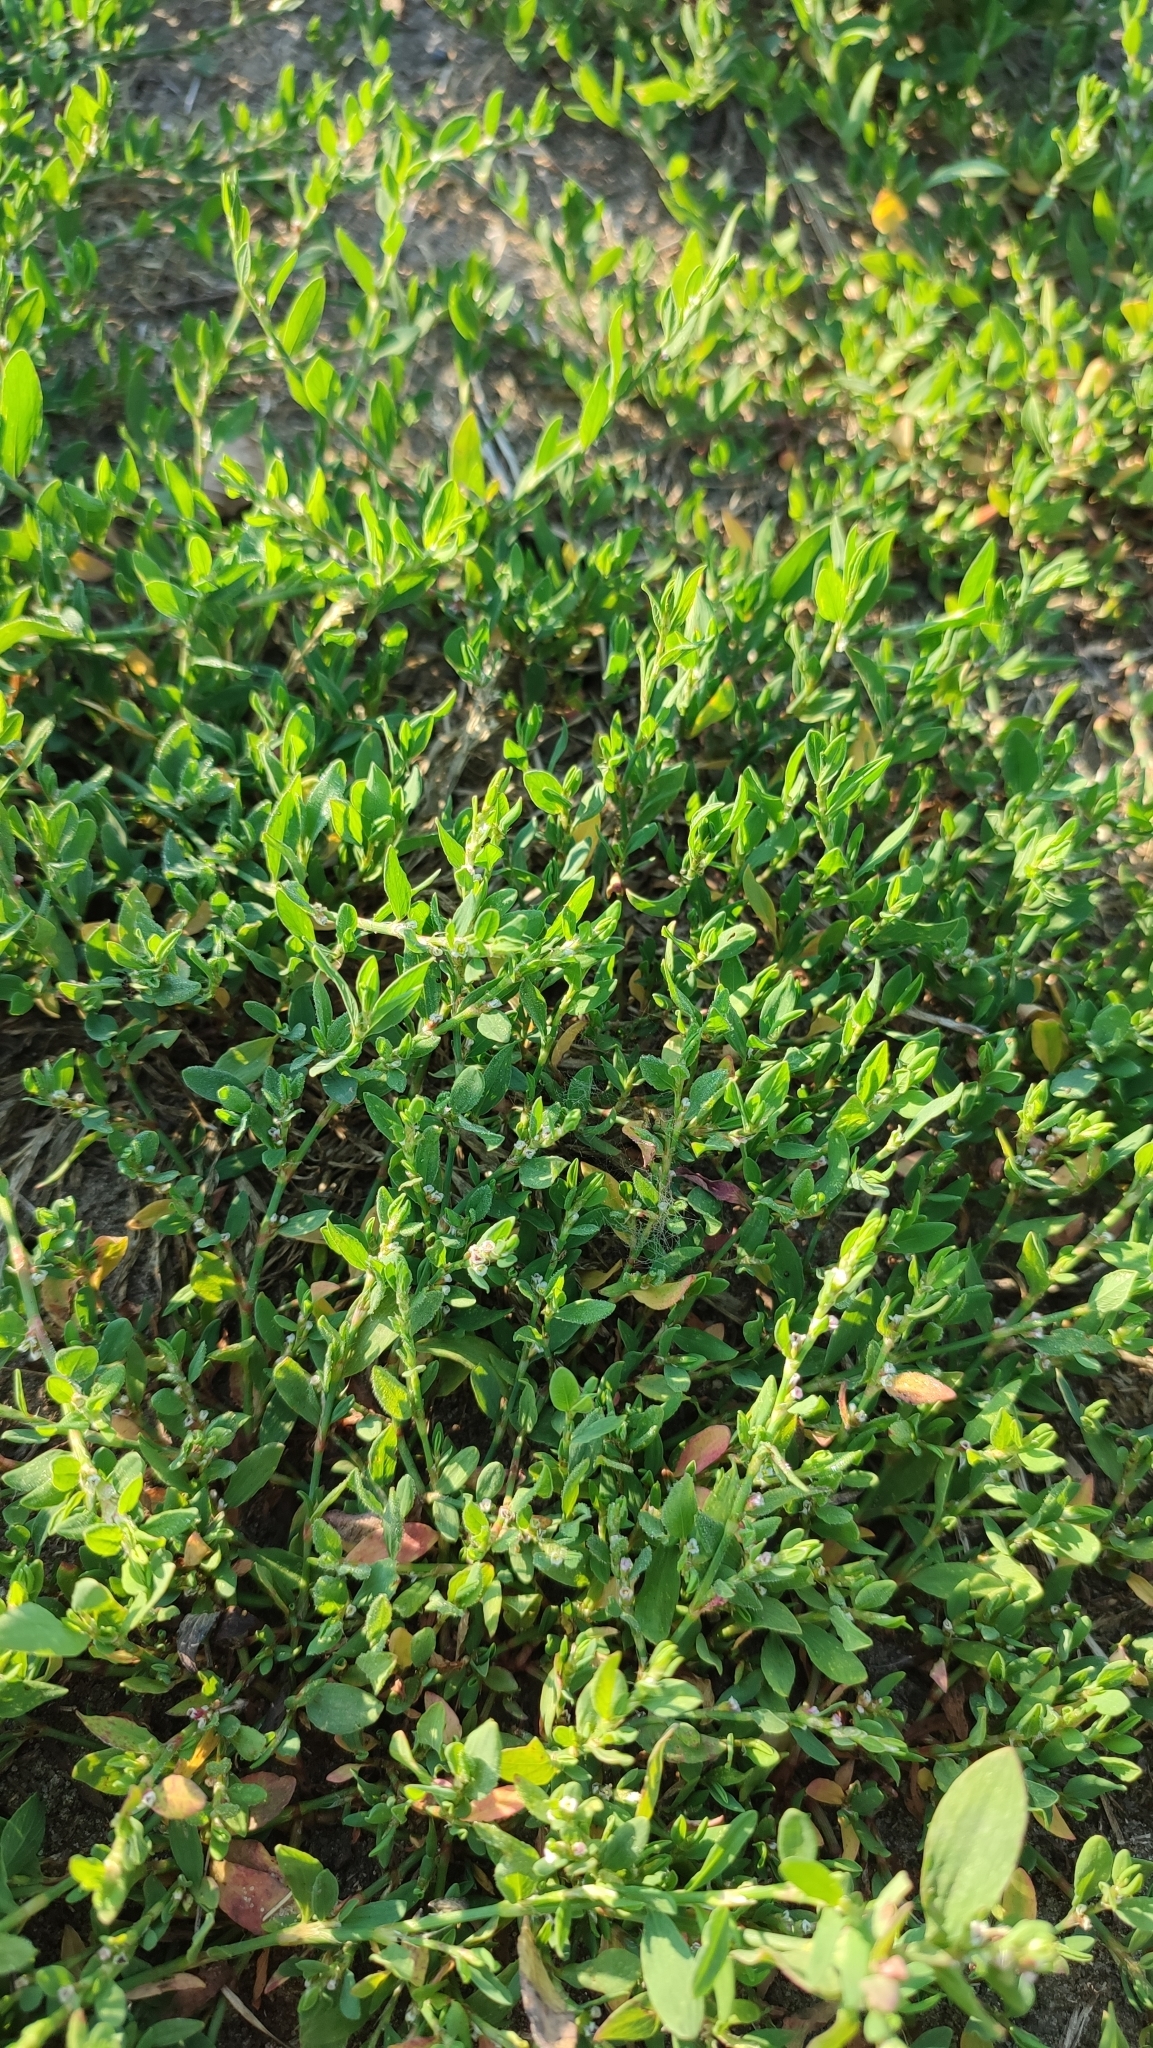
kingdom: Plantae
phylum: Tracheophyta
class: Magnoliopsida
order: Caryophyllales
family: Polygonaceae
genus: Polygonum
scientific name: Polygonum aviculare
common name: Prostrate knotweed
